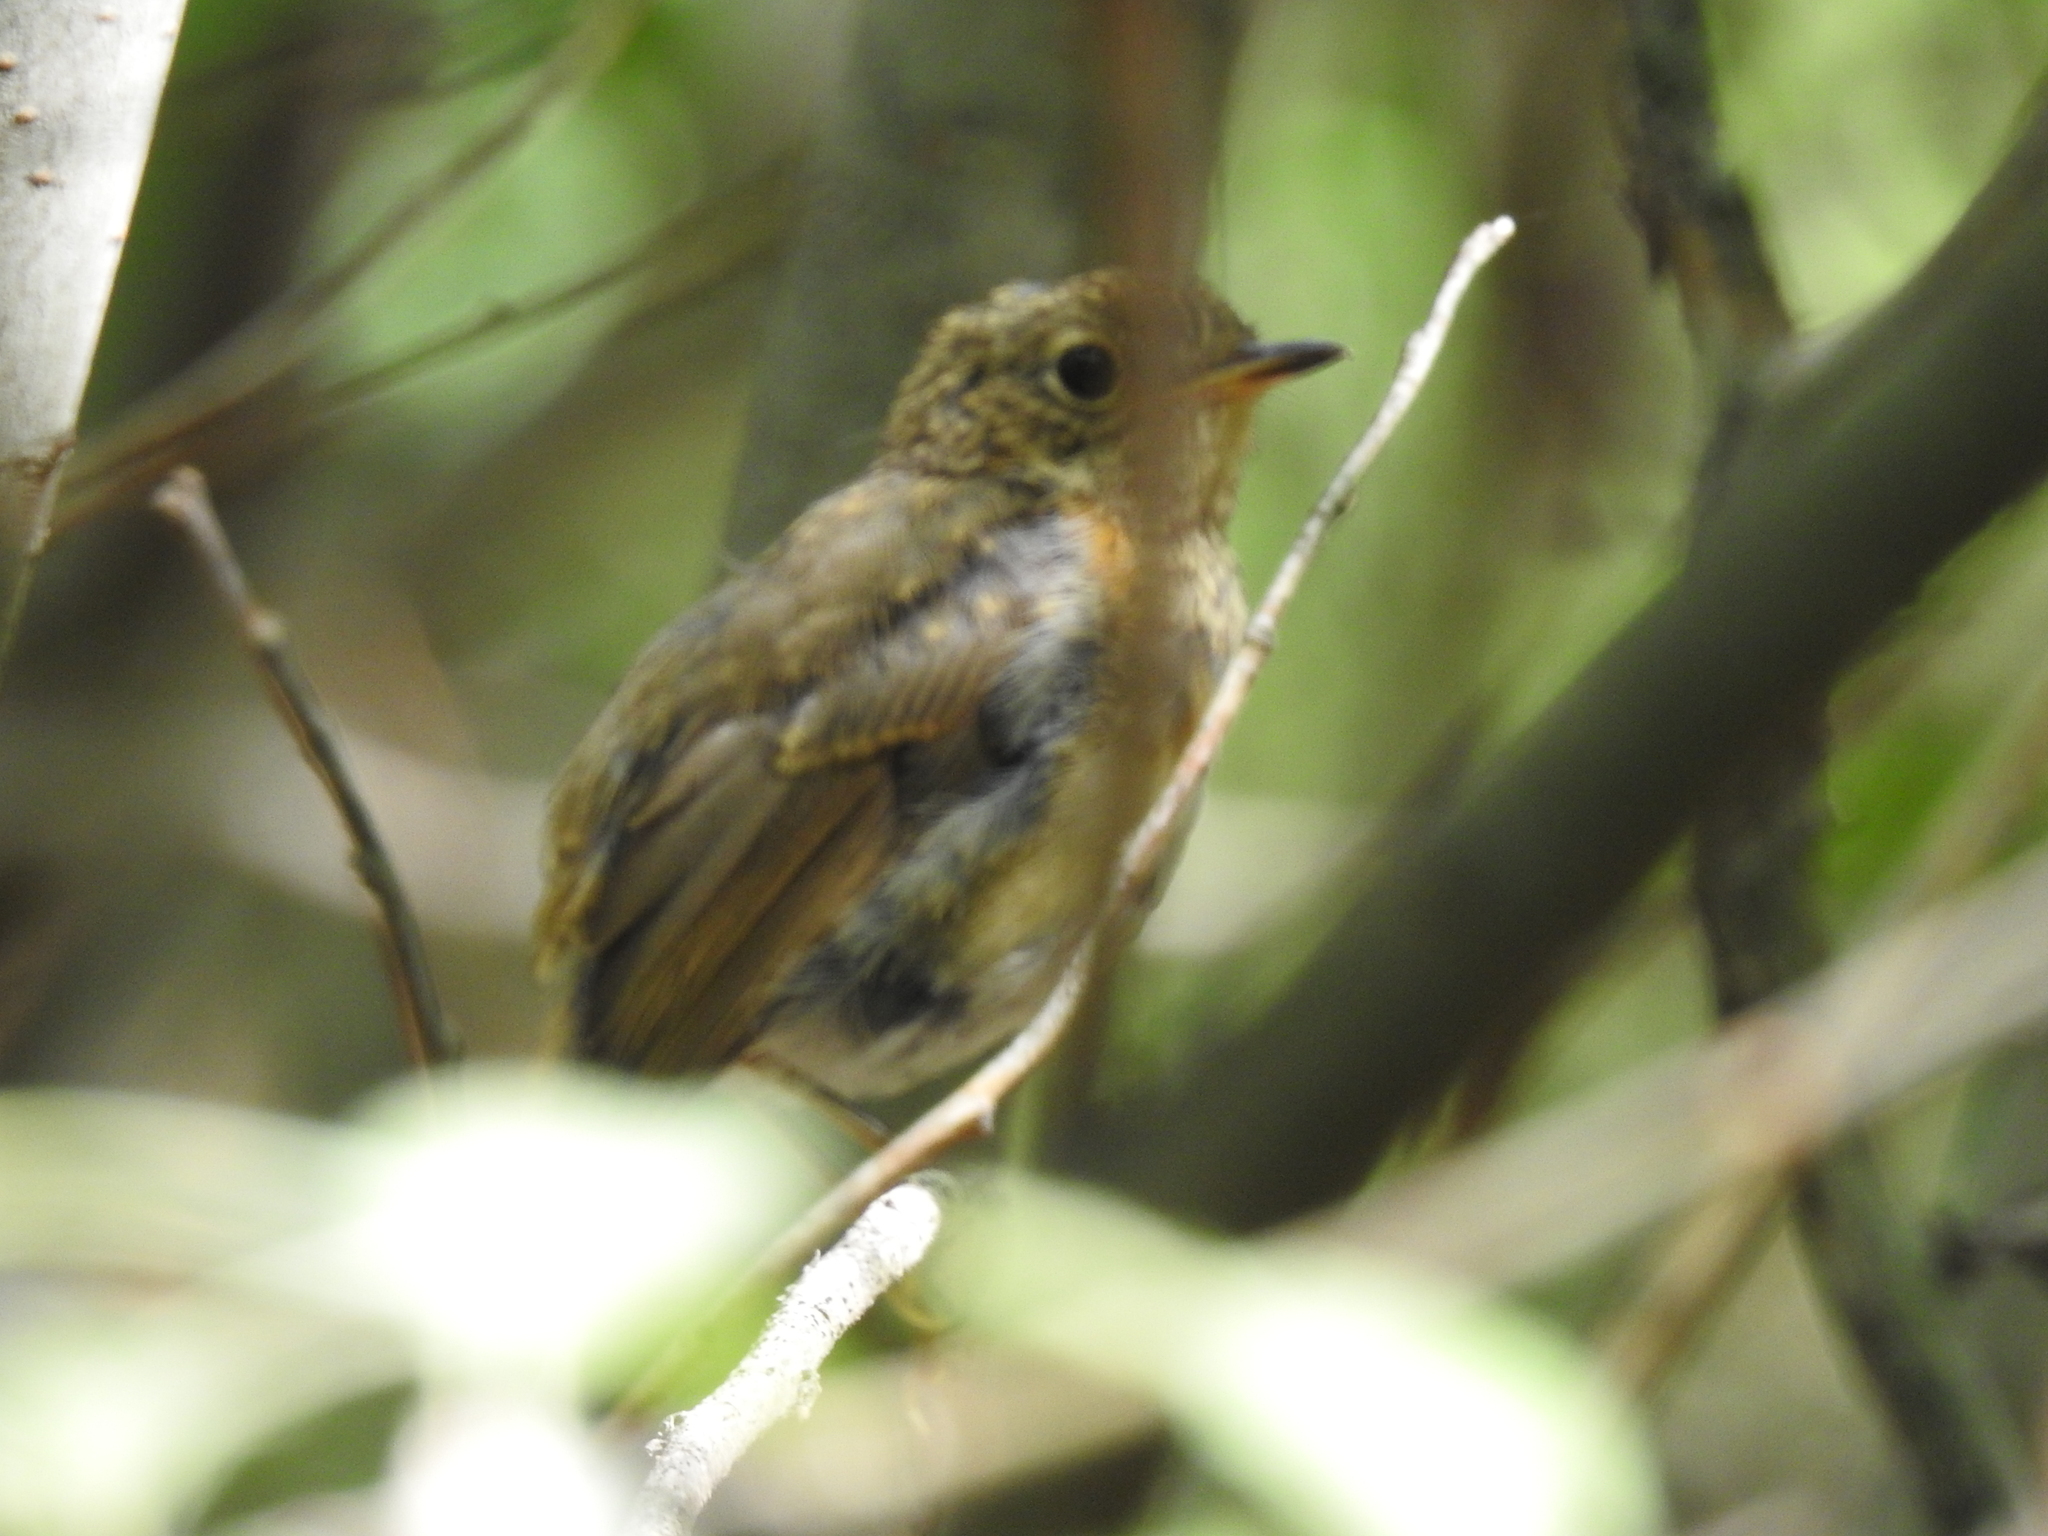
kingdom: Animalia
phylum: Chordata
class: Aves
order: Passeriformes
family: Muscicapidae
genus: Erithacus
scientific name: Erithacus rubecula
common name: European robin
